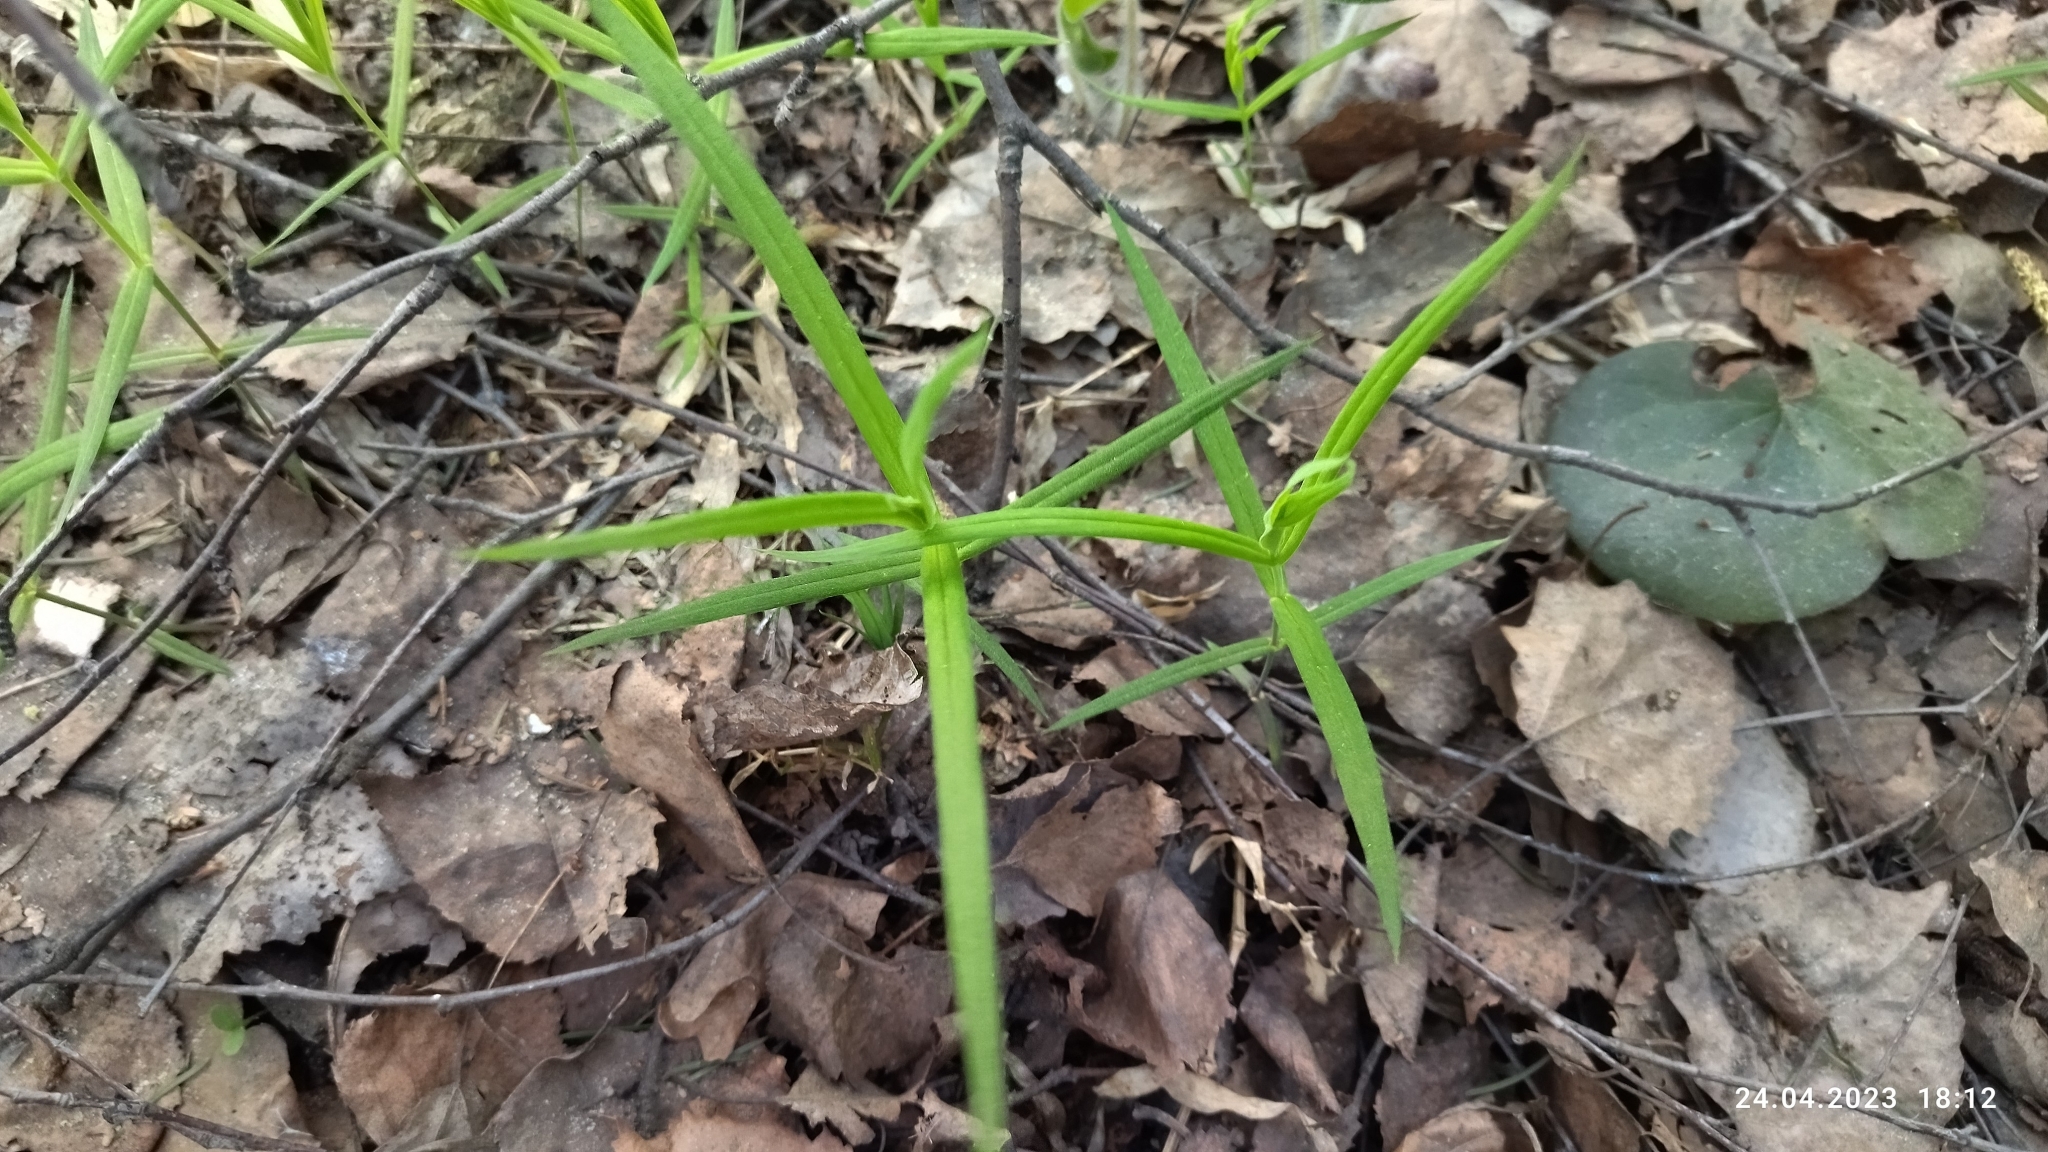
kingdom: Plantae
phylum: Tracheophyta
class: Magnoliopsida
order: Caryophyllales
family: Caryophyllaceae
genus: Rabelera
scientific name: Rabelera holostea
